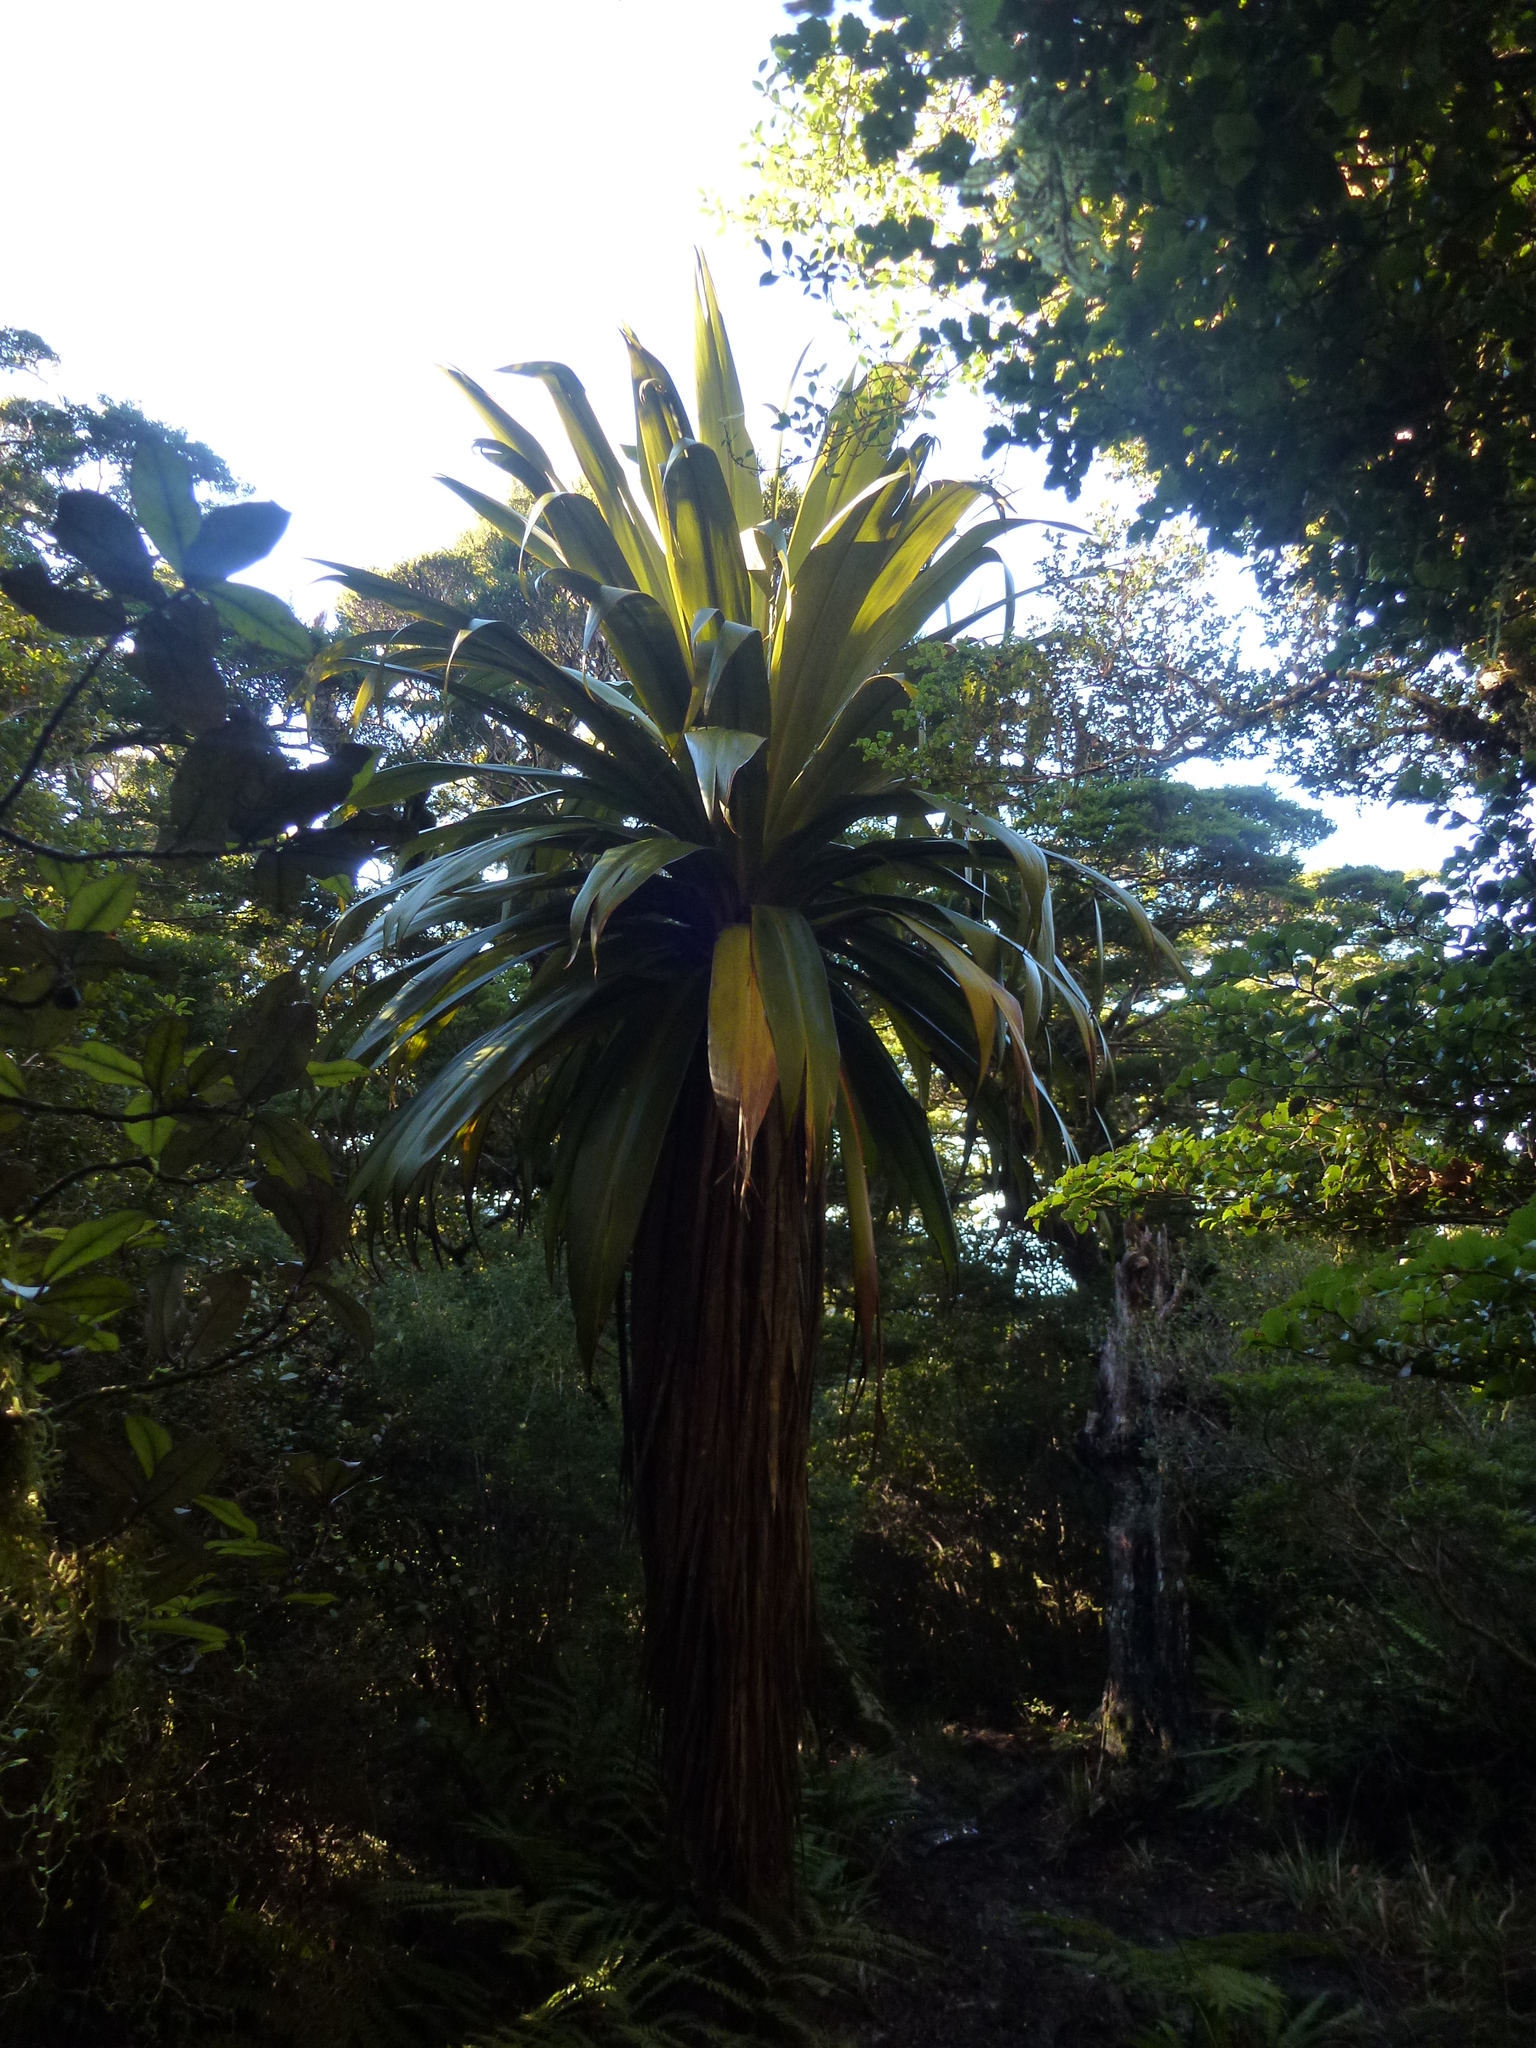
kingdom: Plantae
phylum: Tracheophyta
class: Liliopsida
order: Asparagales
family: Asparagaceae
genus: Cordyline
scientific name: Cordyline indivisa
